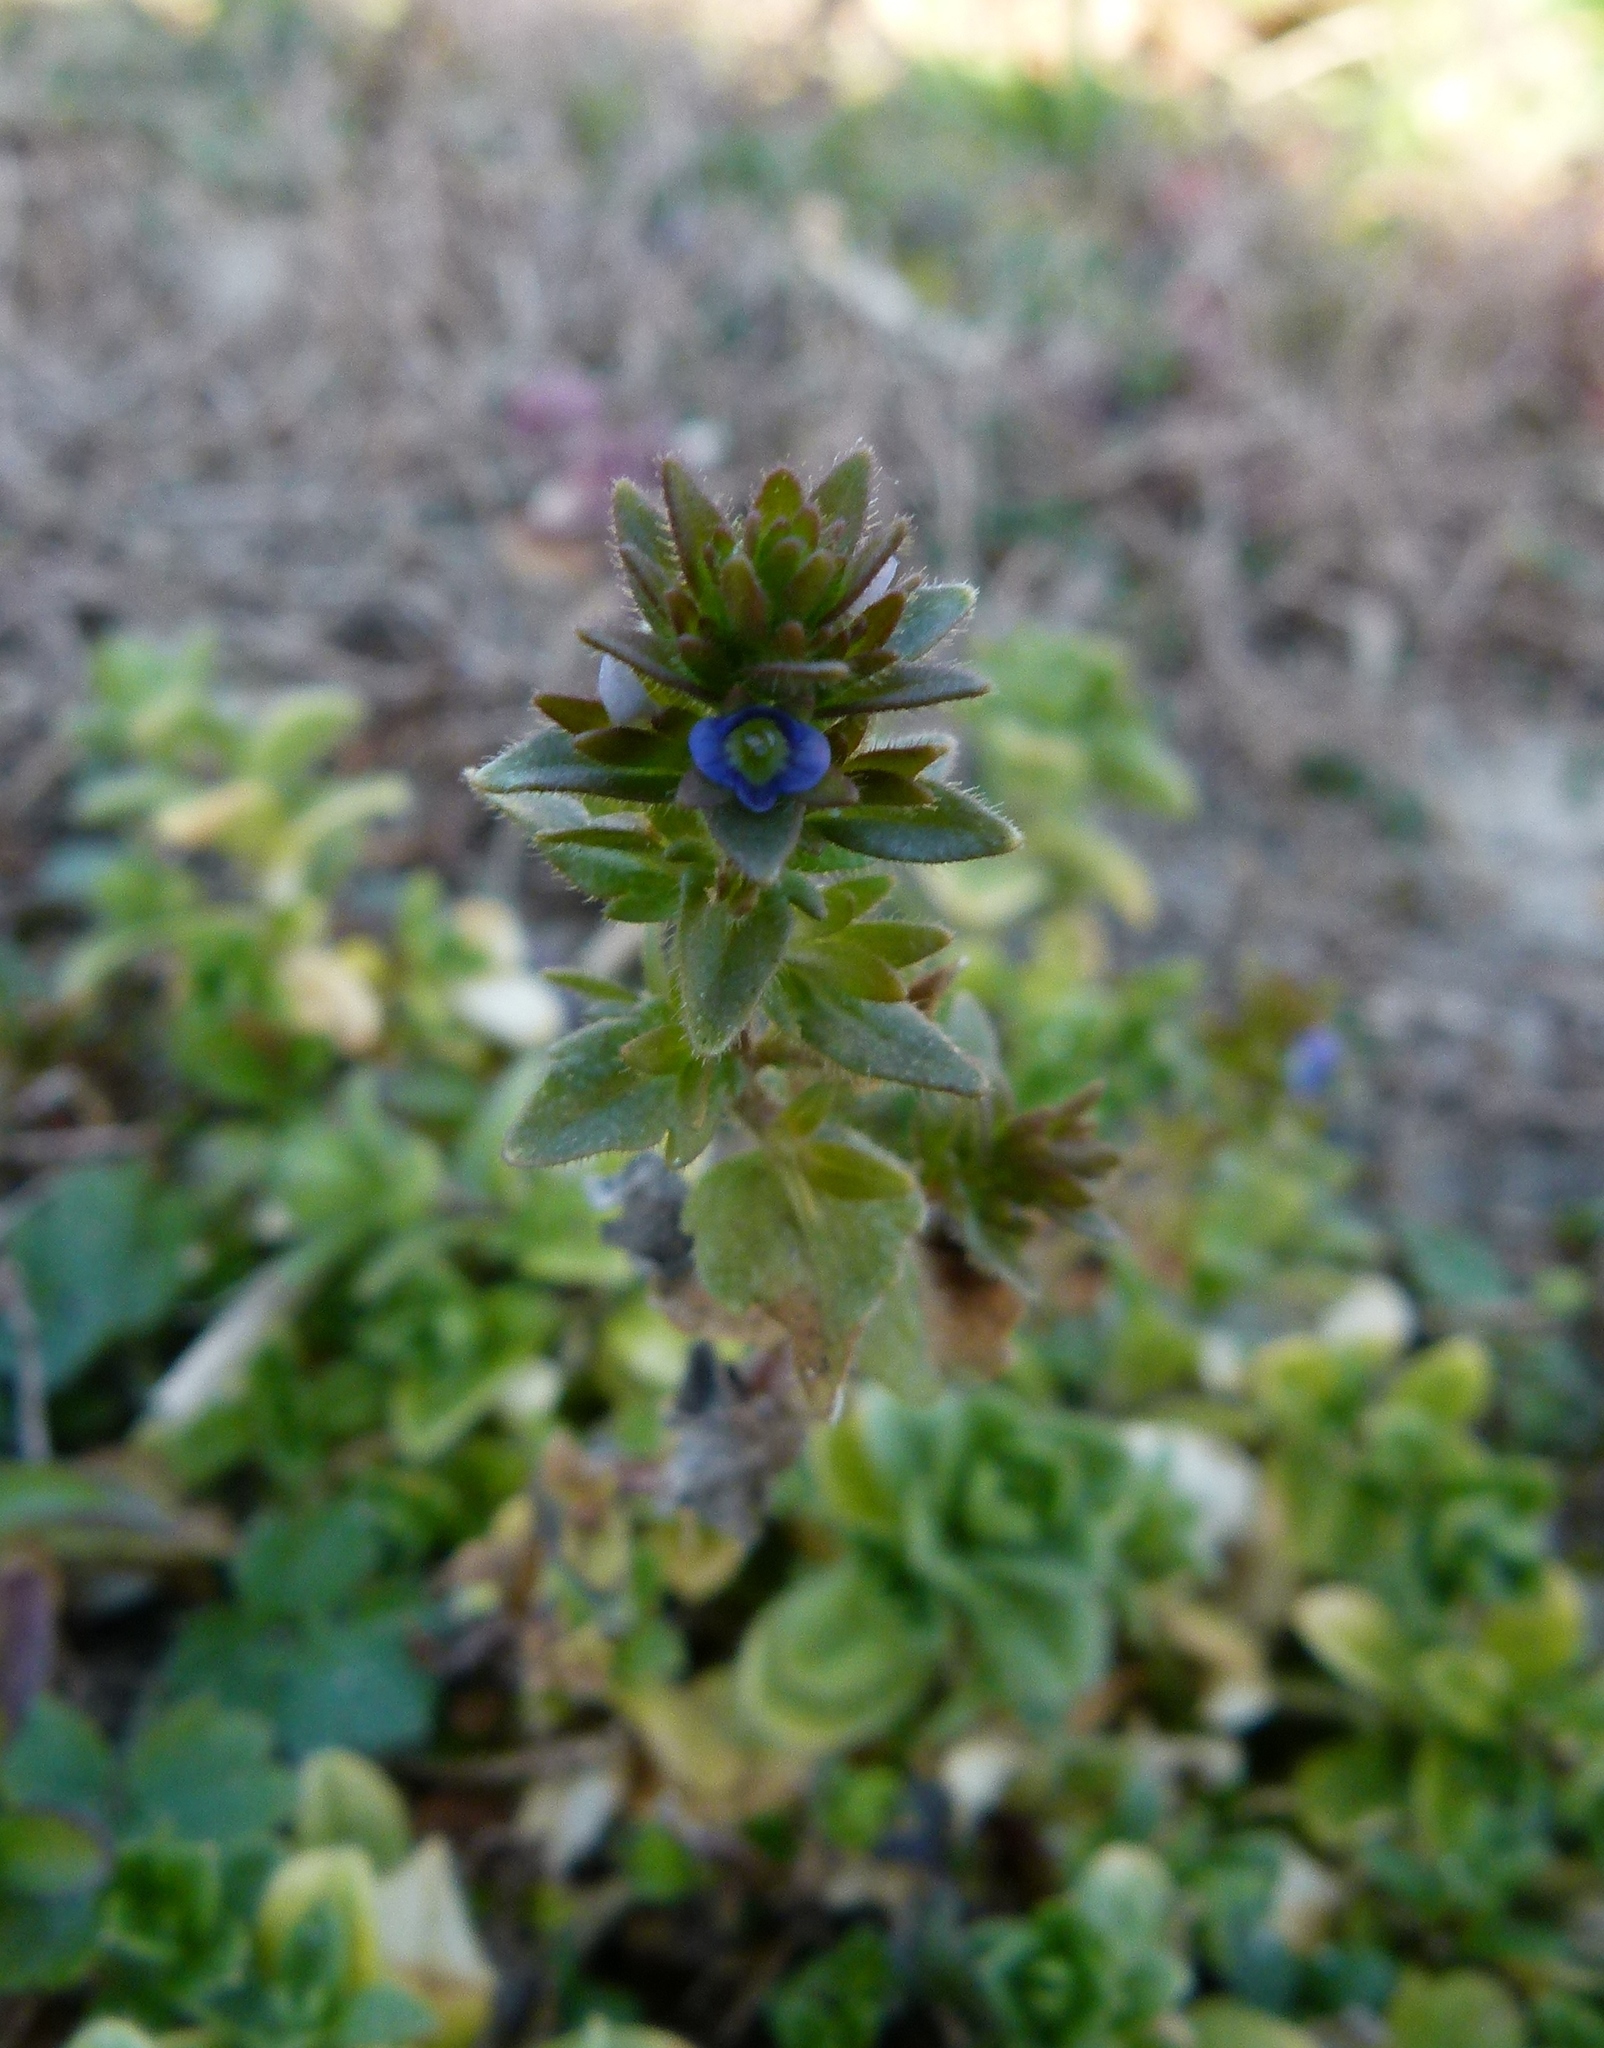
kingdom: Plantae
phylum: Tracheophyta
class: Magnoliopsida
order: Lamiales
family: Plantaginaceae
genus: Veronica
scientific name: Veronica arvensis
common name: Corn speedwell
